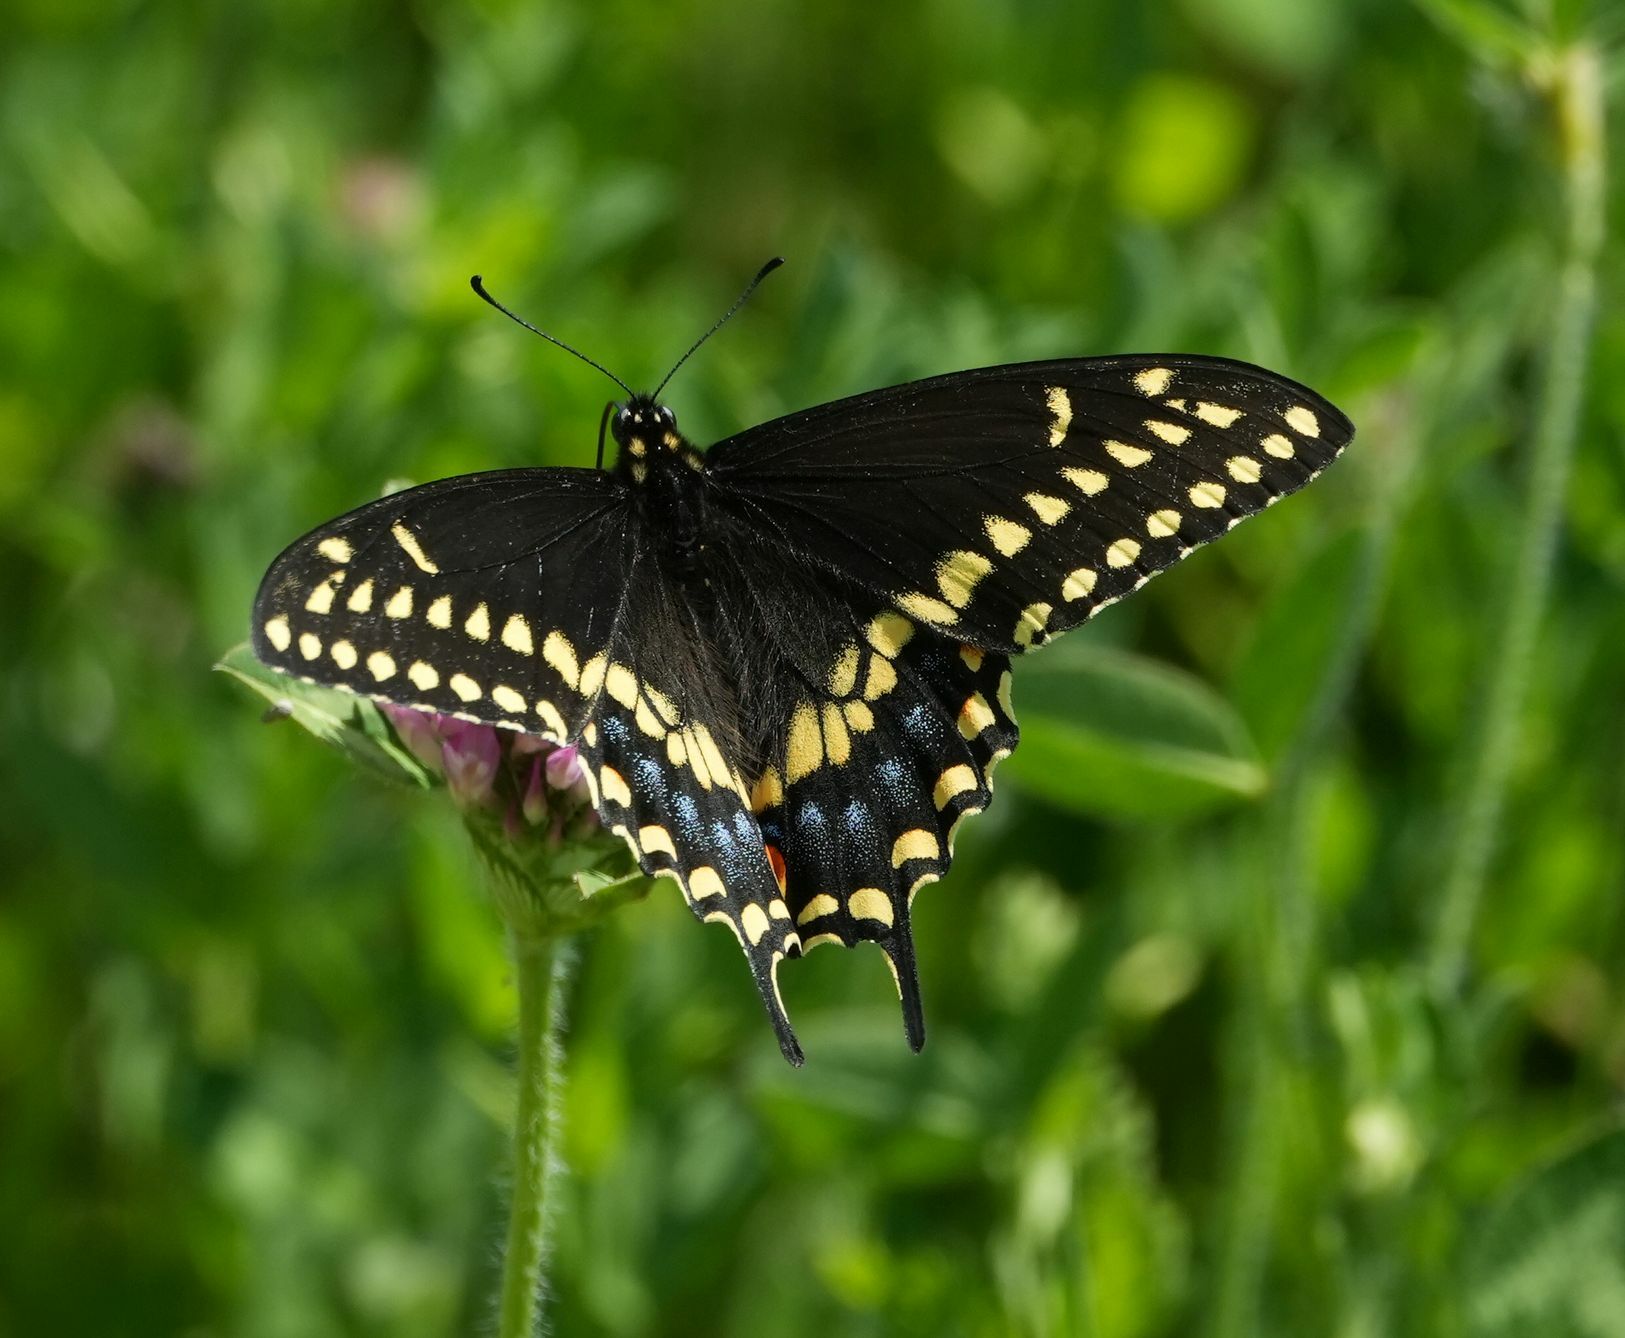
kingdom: Animalia
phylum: Arthropoda
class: Insecta
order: Lepidoptera
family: Papilionidae
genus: Papilio
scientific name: Papilio polyxenes
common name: Black swallowtail
